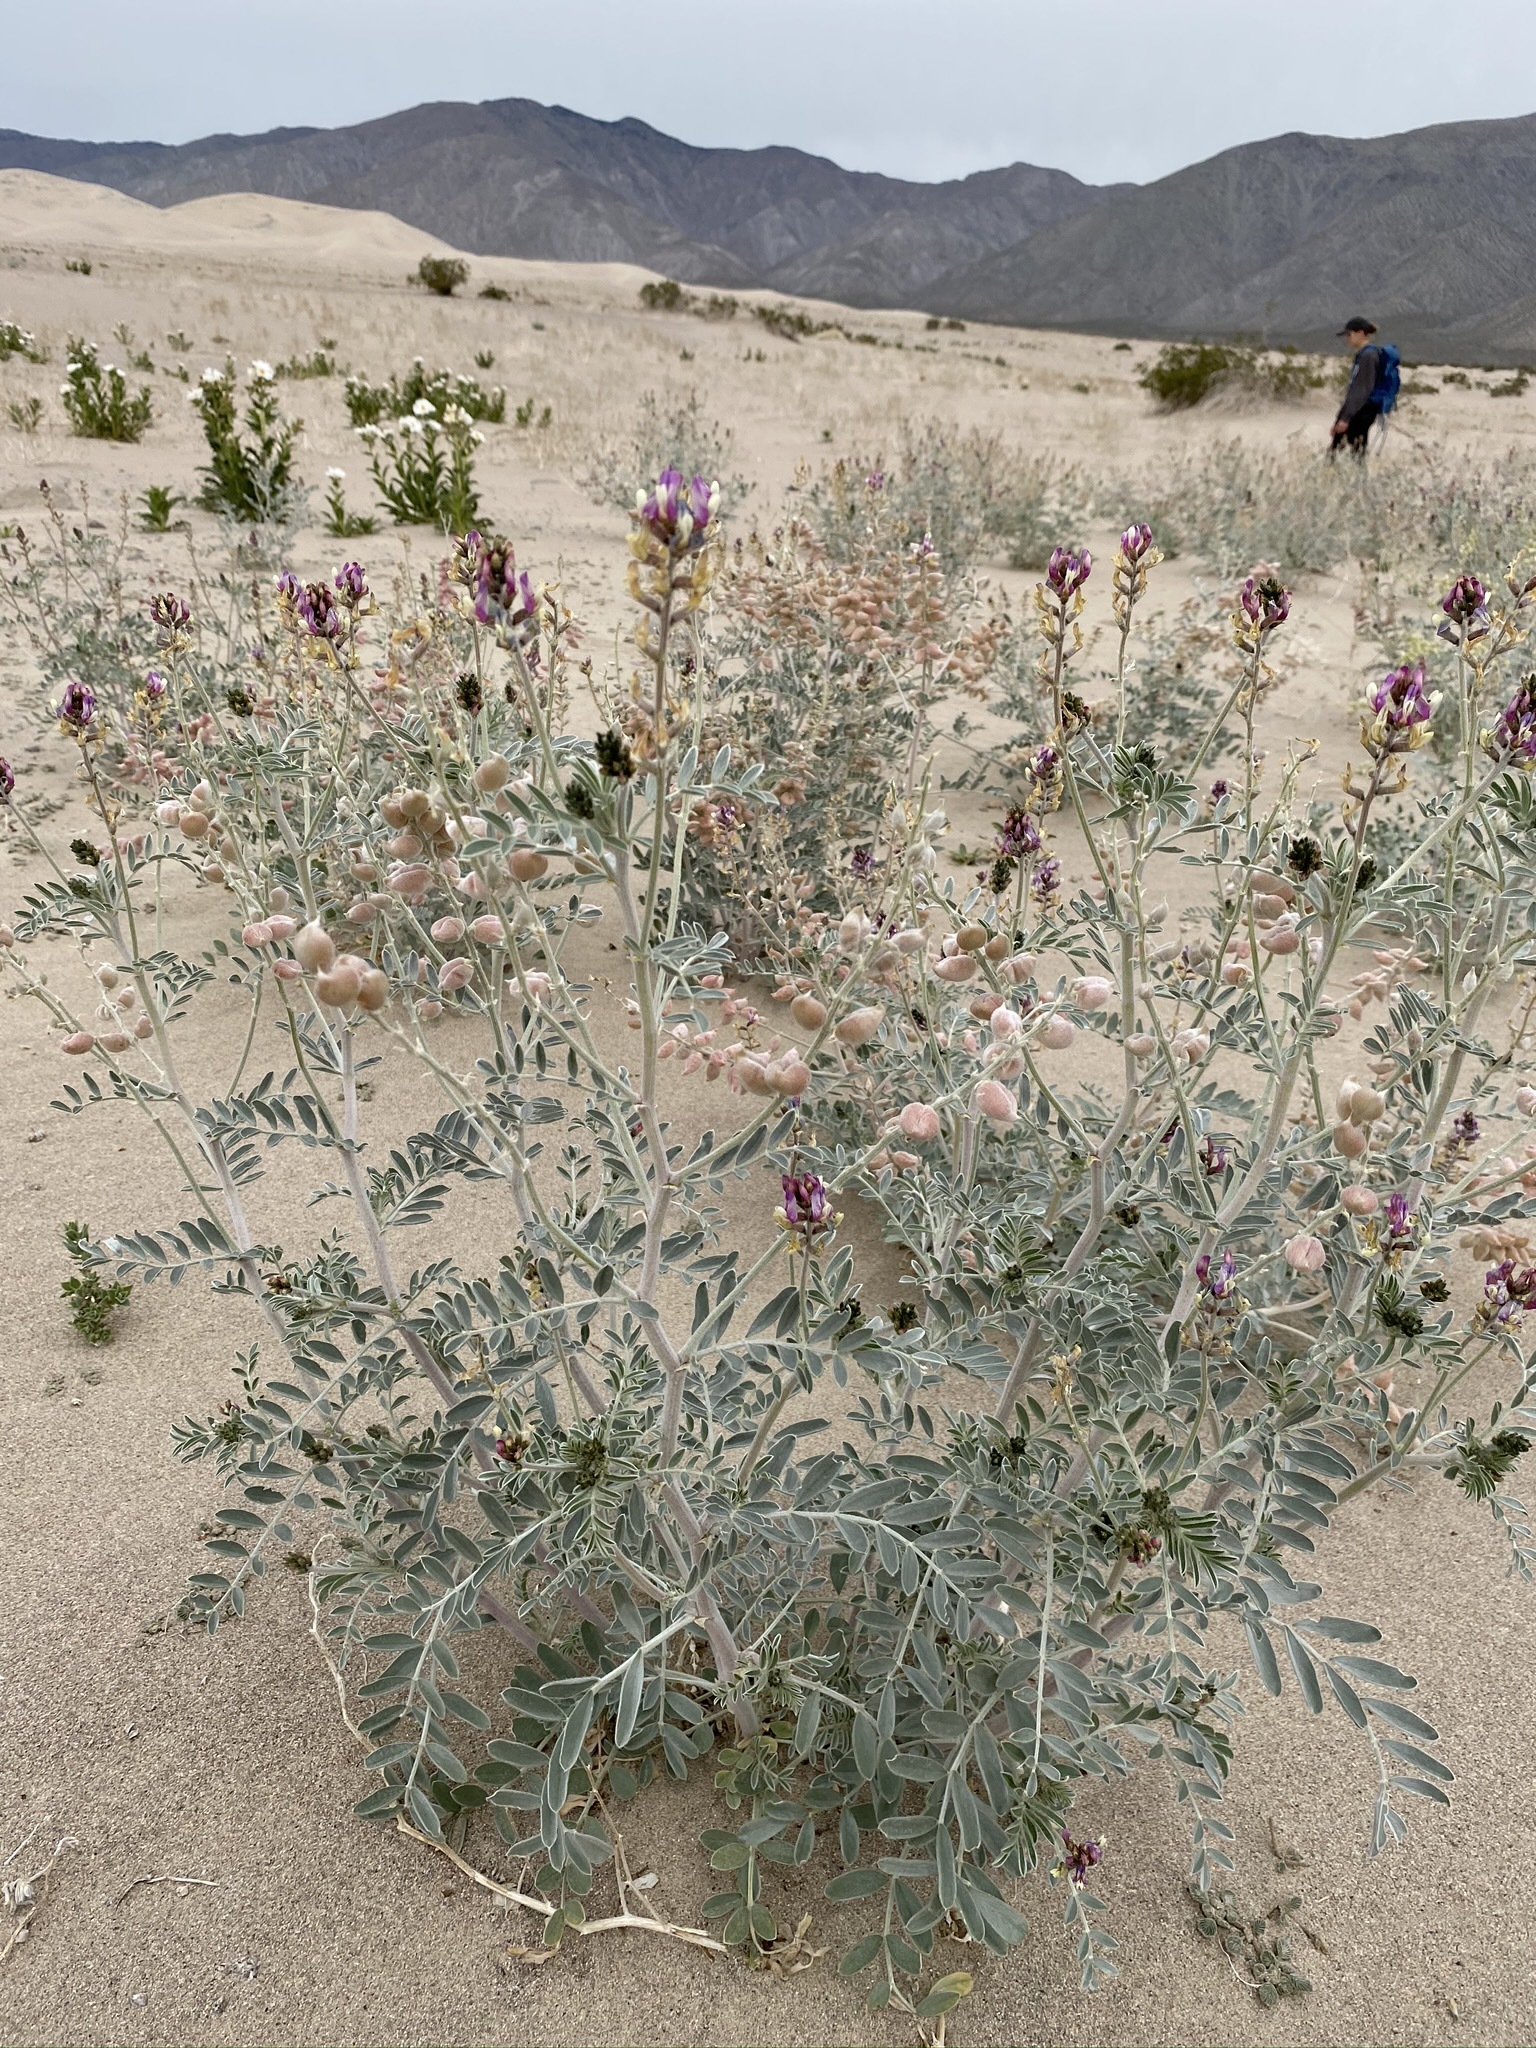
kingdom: Plantae
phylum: Tracheophyta
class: Magnoliopsida
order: Fabales
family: Fabaceae
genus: Astragalus
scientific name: Astragalus lentiginosus
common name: Freckled milkvetch
